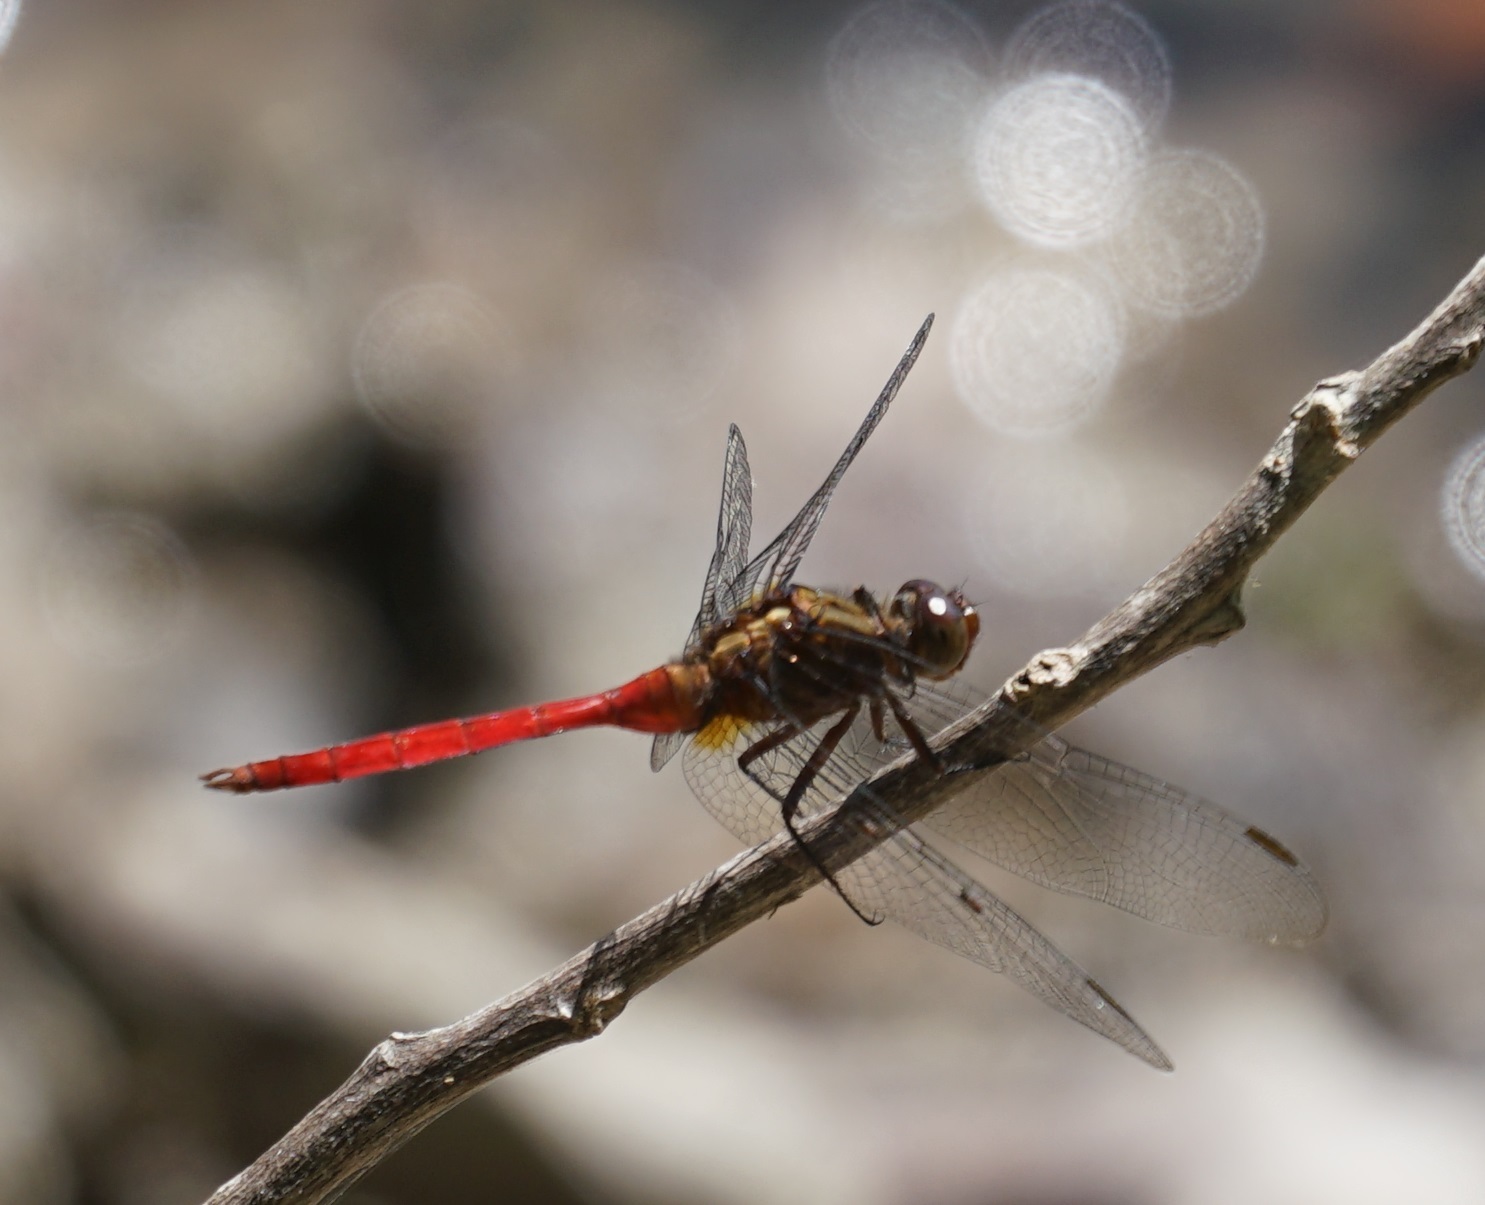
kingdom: Animalia
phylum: Arthropoda
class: Insecta
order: Odonata
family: Libellulidae
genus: Orthetrum
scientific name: Orthetrum villosovittatum
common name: Firery skimmer
